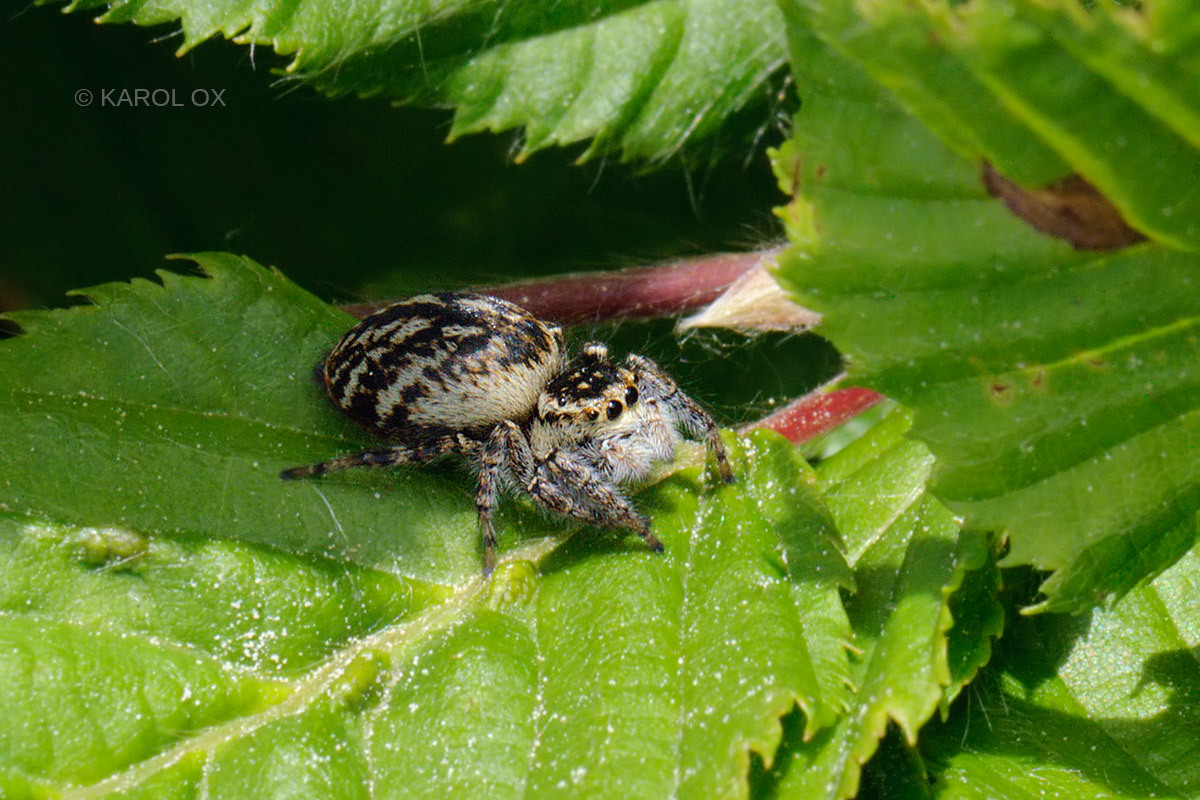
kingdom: Animalia
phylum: Arthropoda
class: Arachnida
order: Araneae
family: Salticidae
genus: Carrhotus
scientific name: Carrhotus xanthogramma
